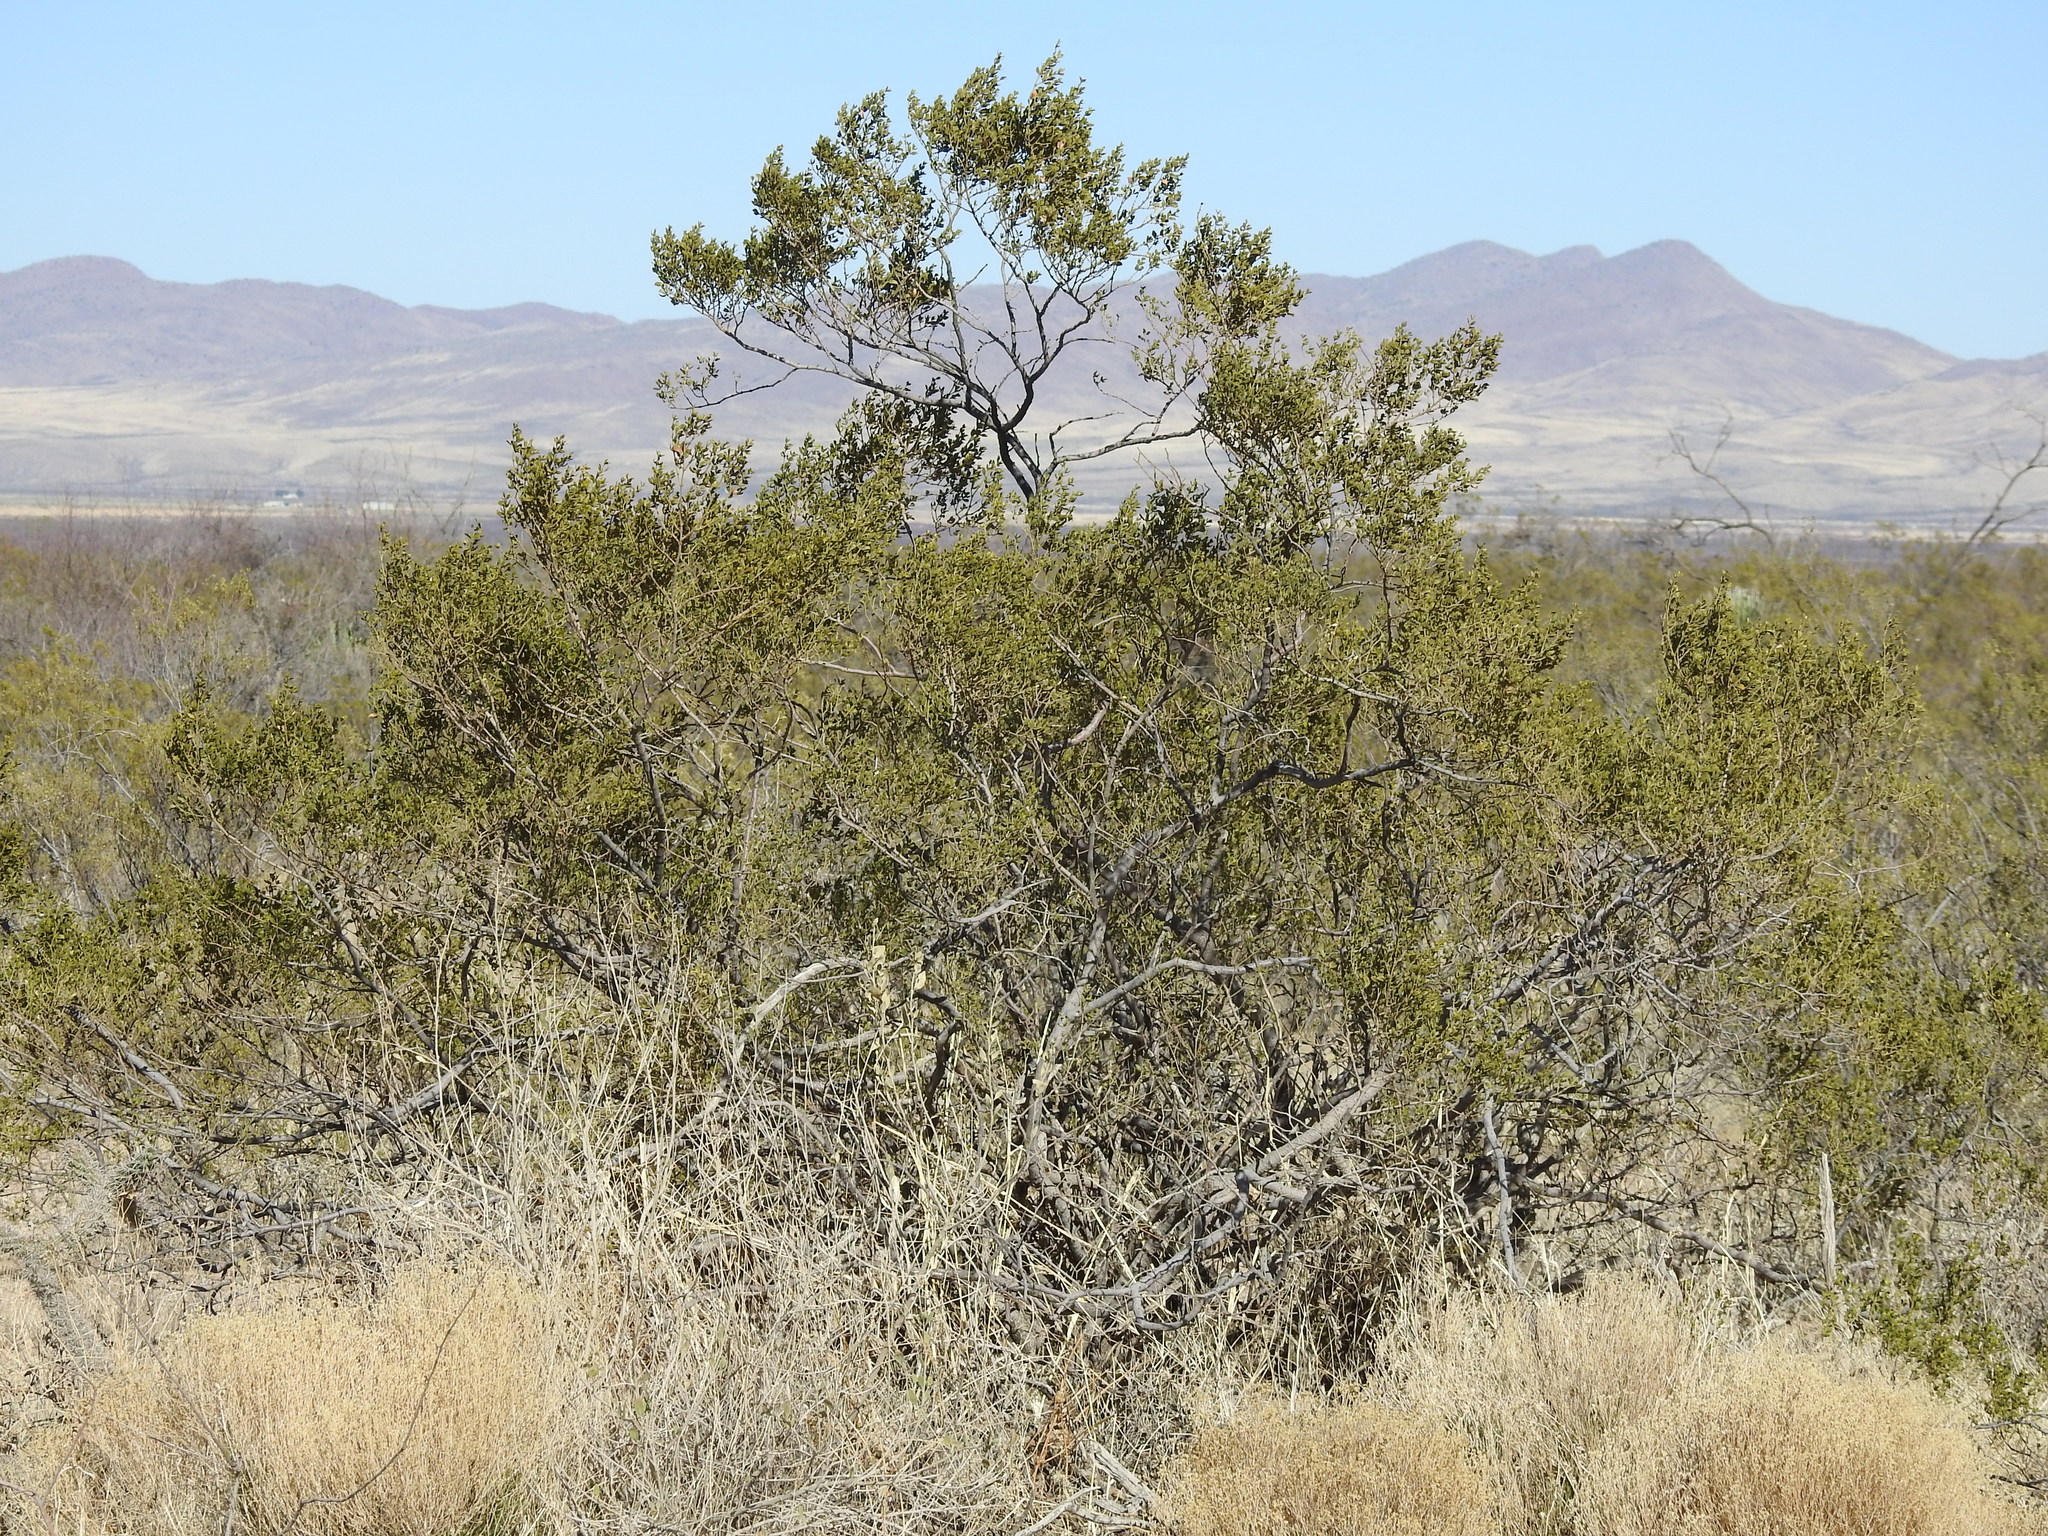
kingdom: Plantae
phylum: Tracheophyta
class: Magnoliopsida
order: Zygophyllales
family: Zygophyllaceae
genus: Larrea
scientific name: Larrea tridentata
